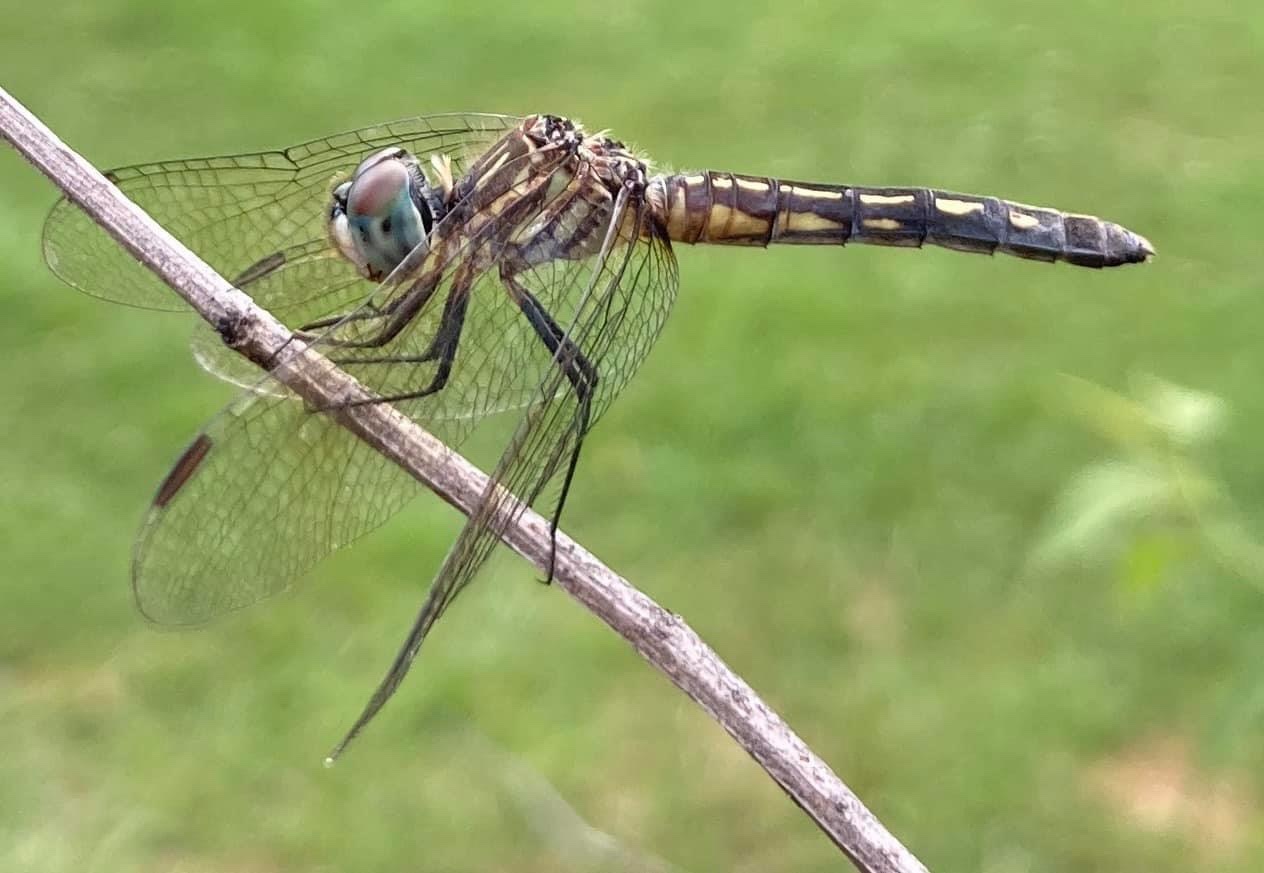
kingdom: Animalia
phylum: Arthropoda
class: Insecta
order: Odonata
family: Libellulidae
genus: Pachydiplax
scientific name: Pachydiplax longipennis
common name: Blue dasher
